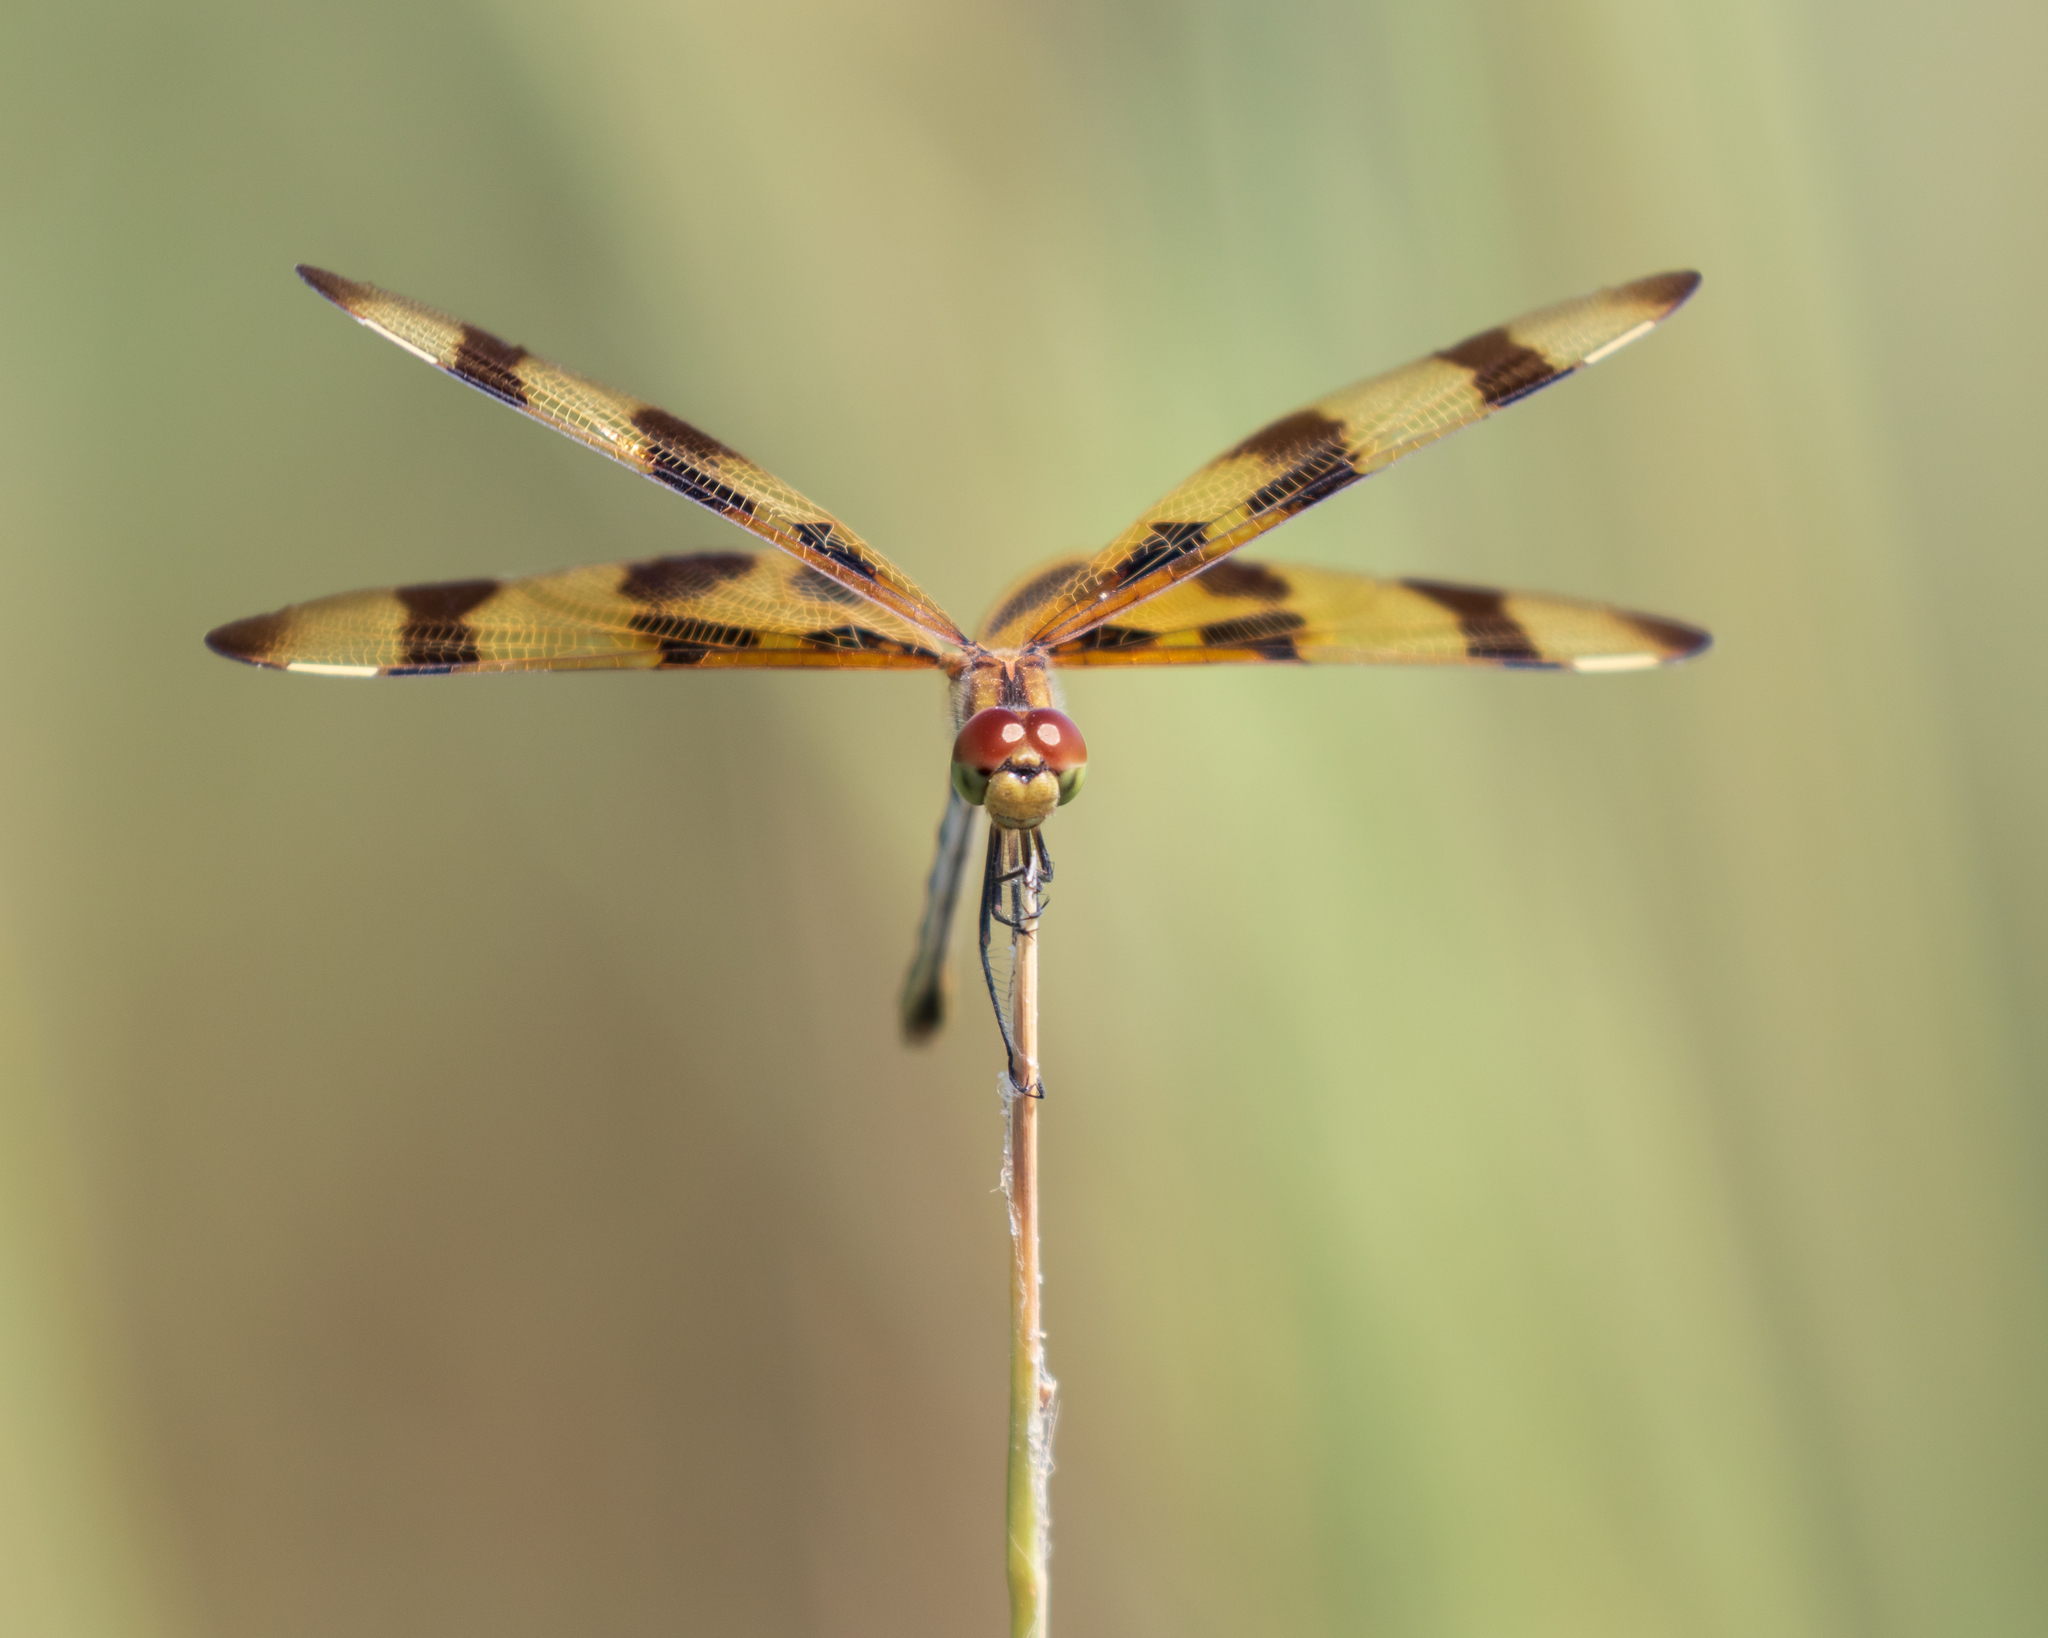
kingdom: Animalia
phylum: Arthropoda
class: Insecta
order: Odonata
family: Libellulidae
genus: Celithemis
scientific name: Celithemis eponina
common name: Halloween pennant
